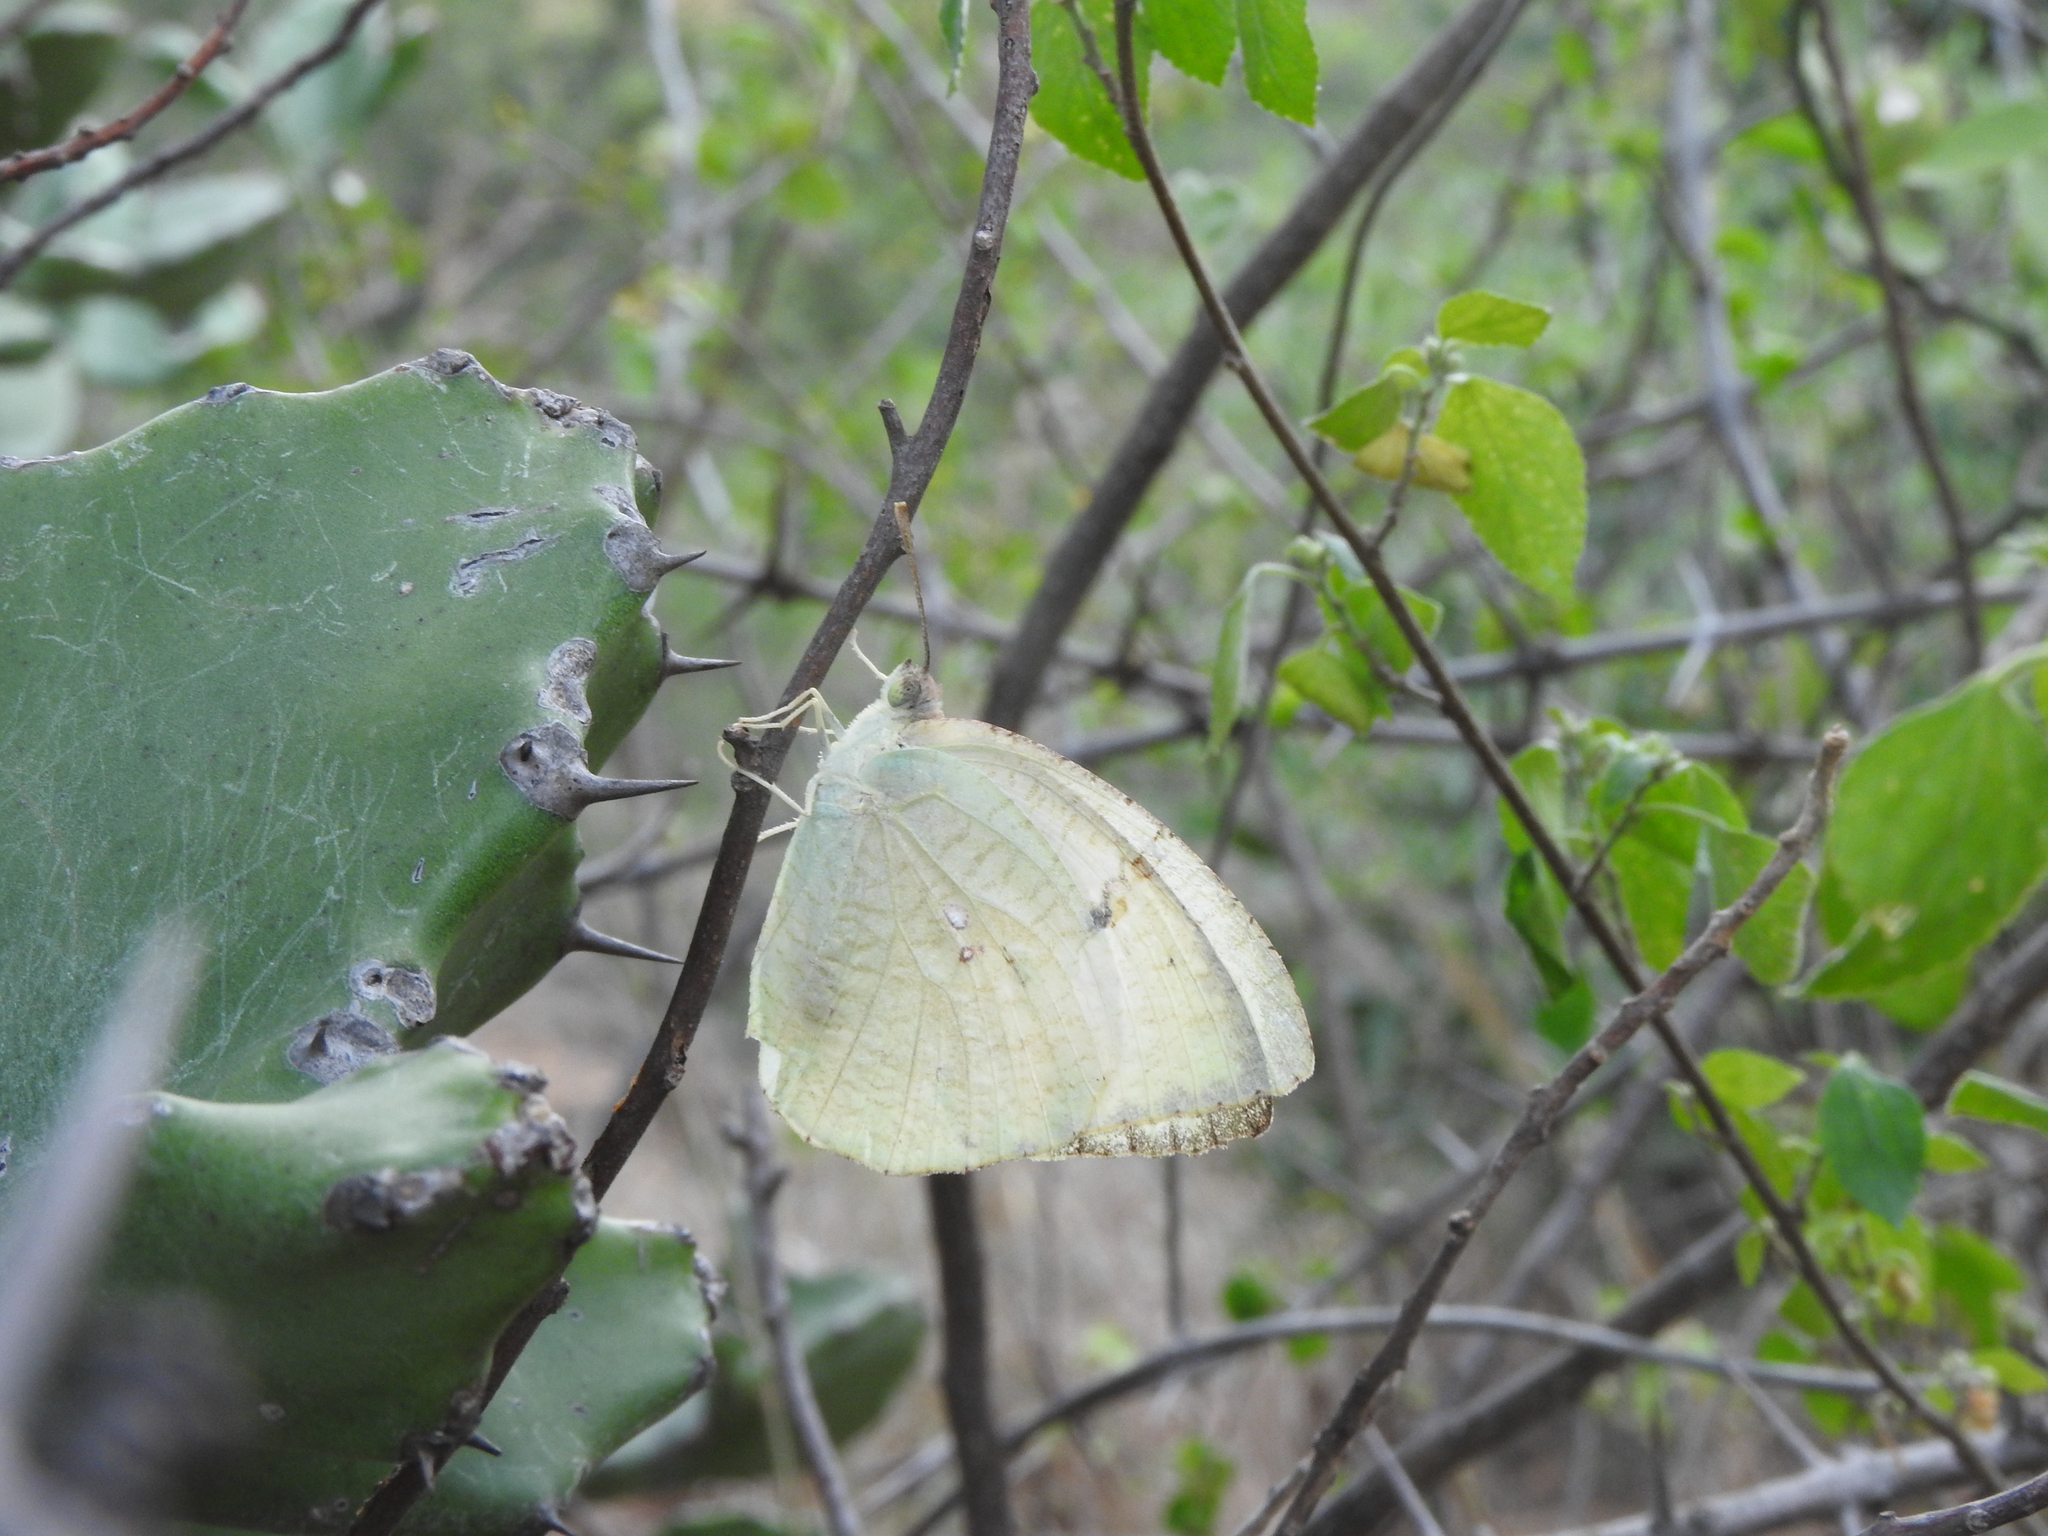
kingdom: Animalia
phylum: Arthropoda
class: Insecta
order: Lepidoptera
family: Pieridae
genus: Catopsilia
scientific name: Catopsilia pyranthe
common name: Mottled emigrant
